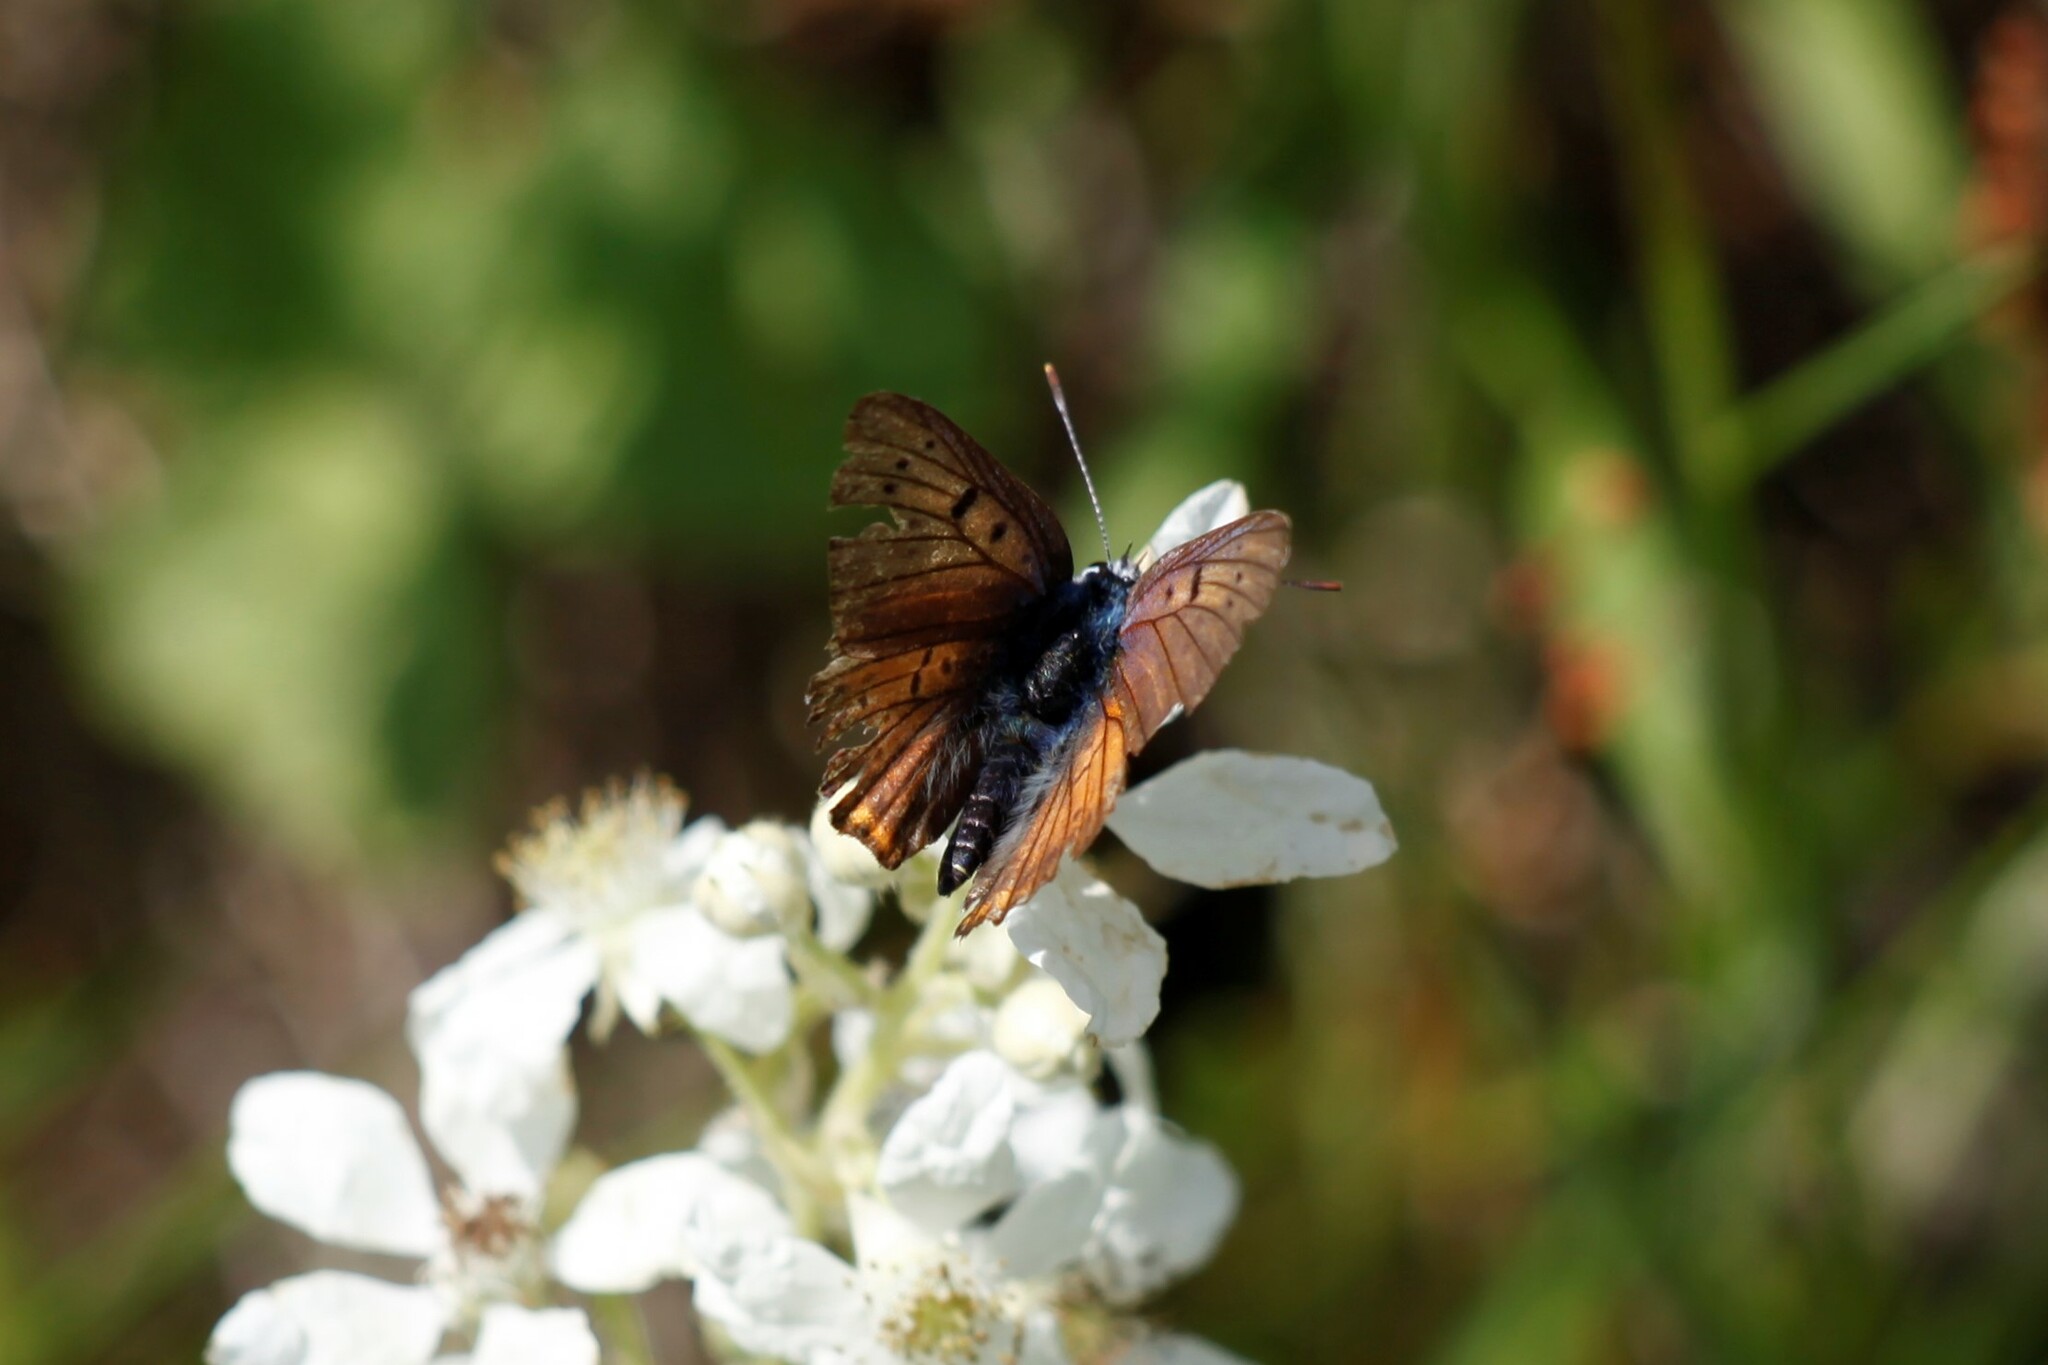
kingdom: Animalia
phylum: Arthropoda
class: Insecta
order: Lepidoptera
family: Lycaenidae
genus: Lycaena
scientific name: Lycaena alciphron
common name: Purple-shot copper
